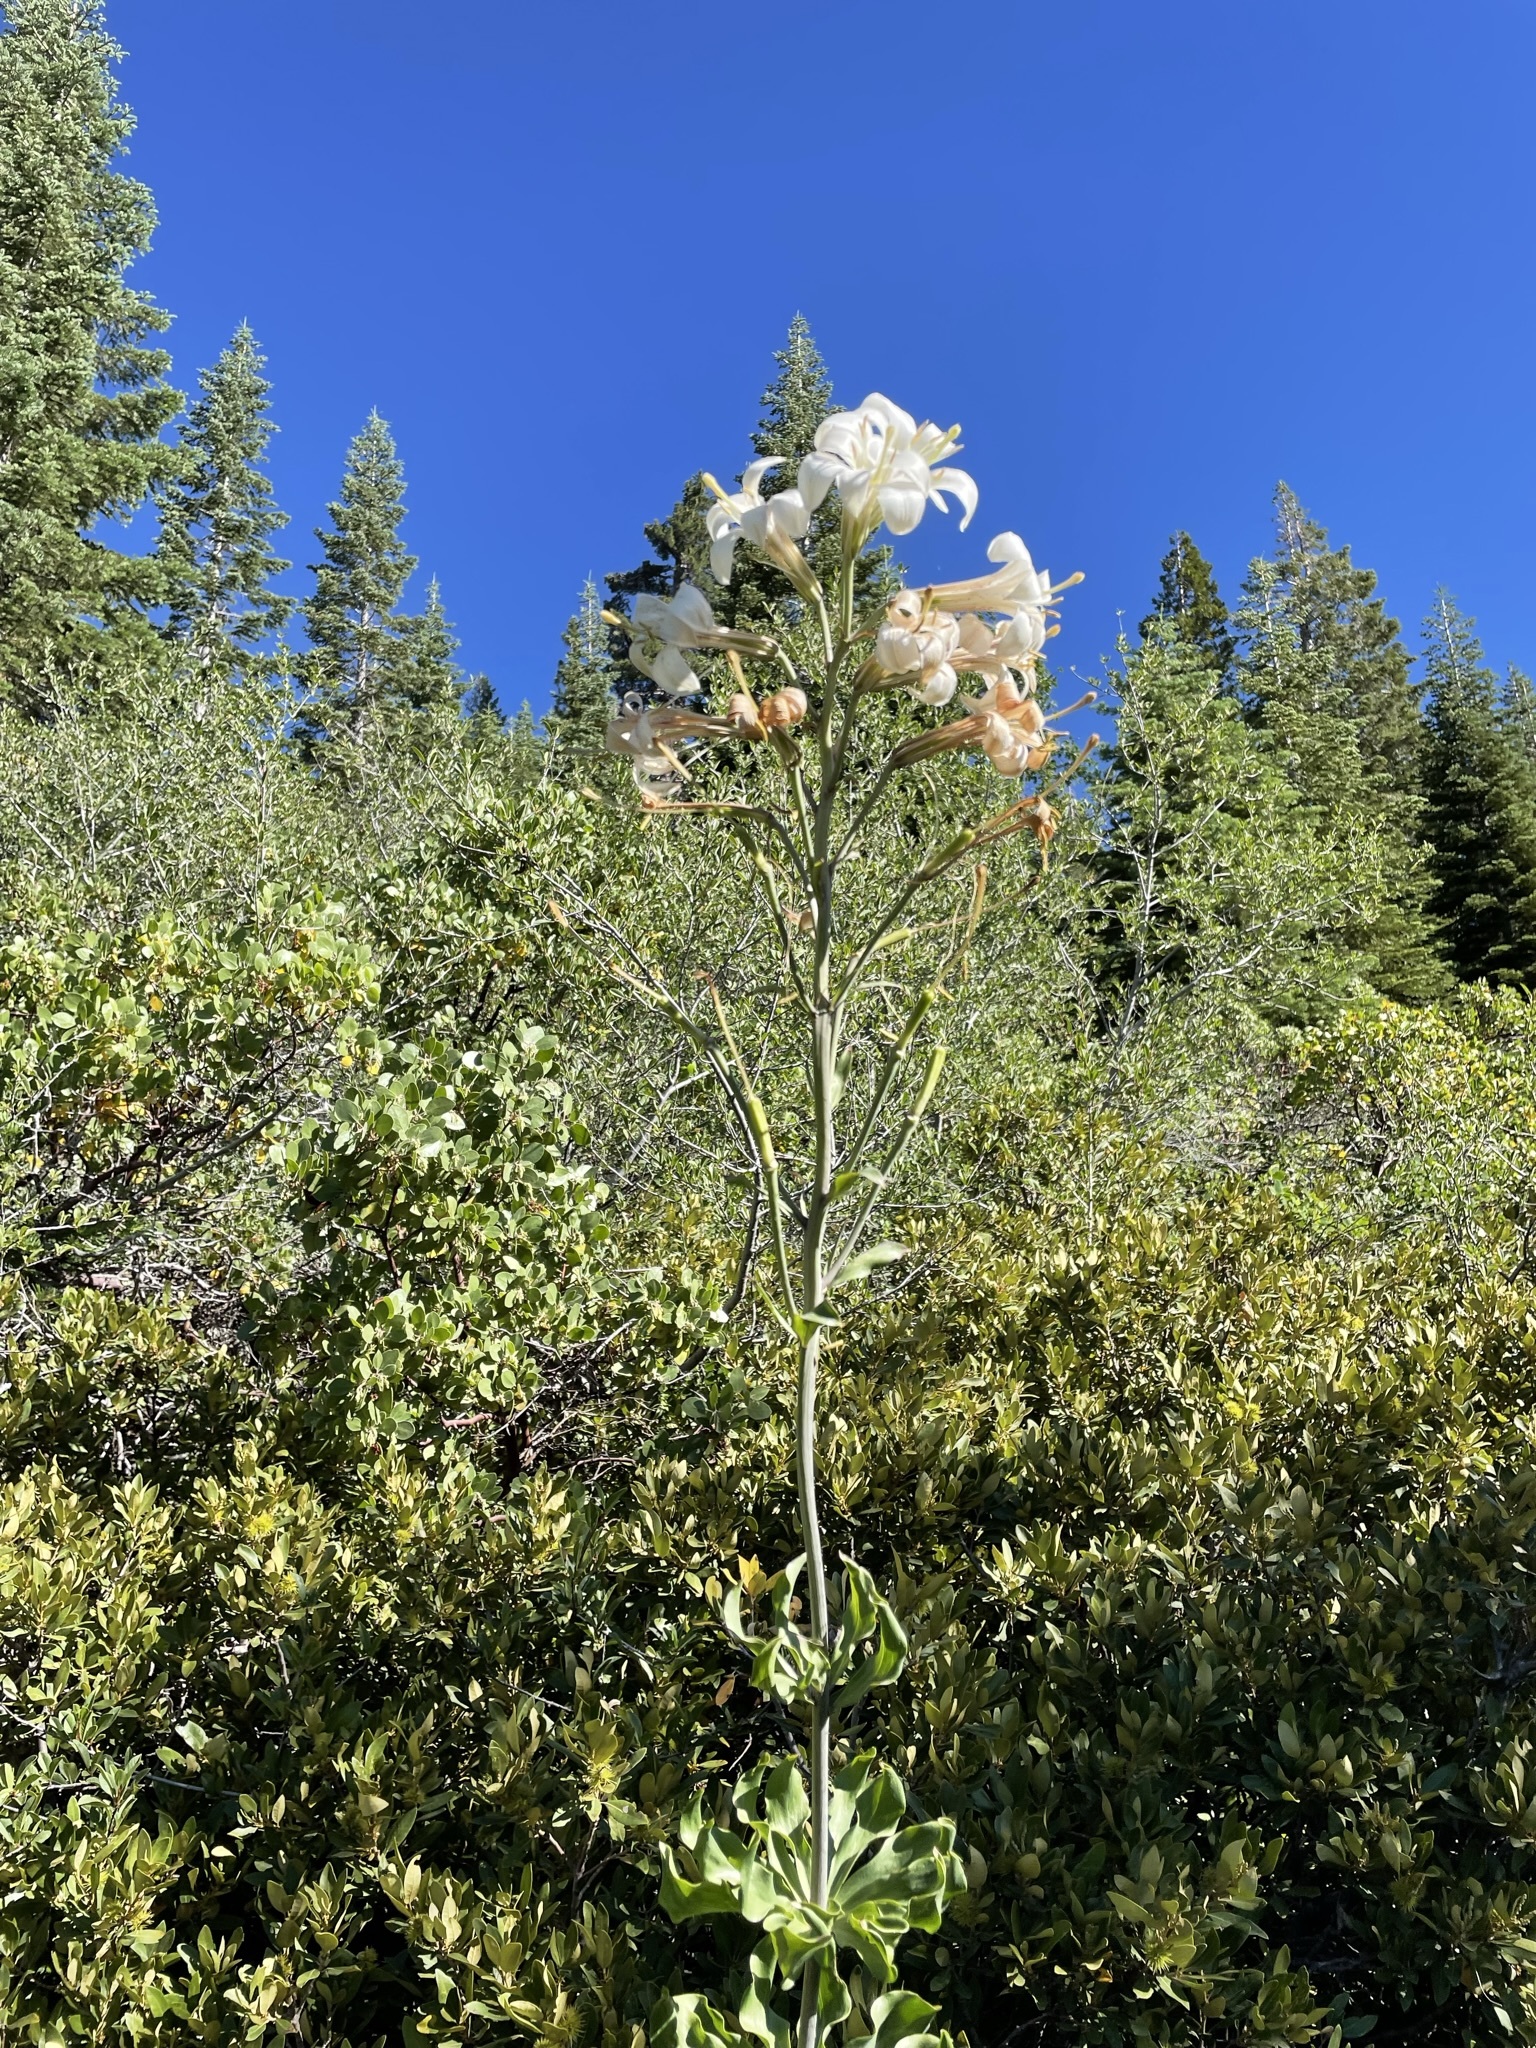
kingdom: Plantae
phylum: Tracheophyta
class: Liliopsida
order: Liliales
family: Liliaceae
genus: Lilium
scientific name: Lilium washingtonianum
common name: Washington lily
